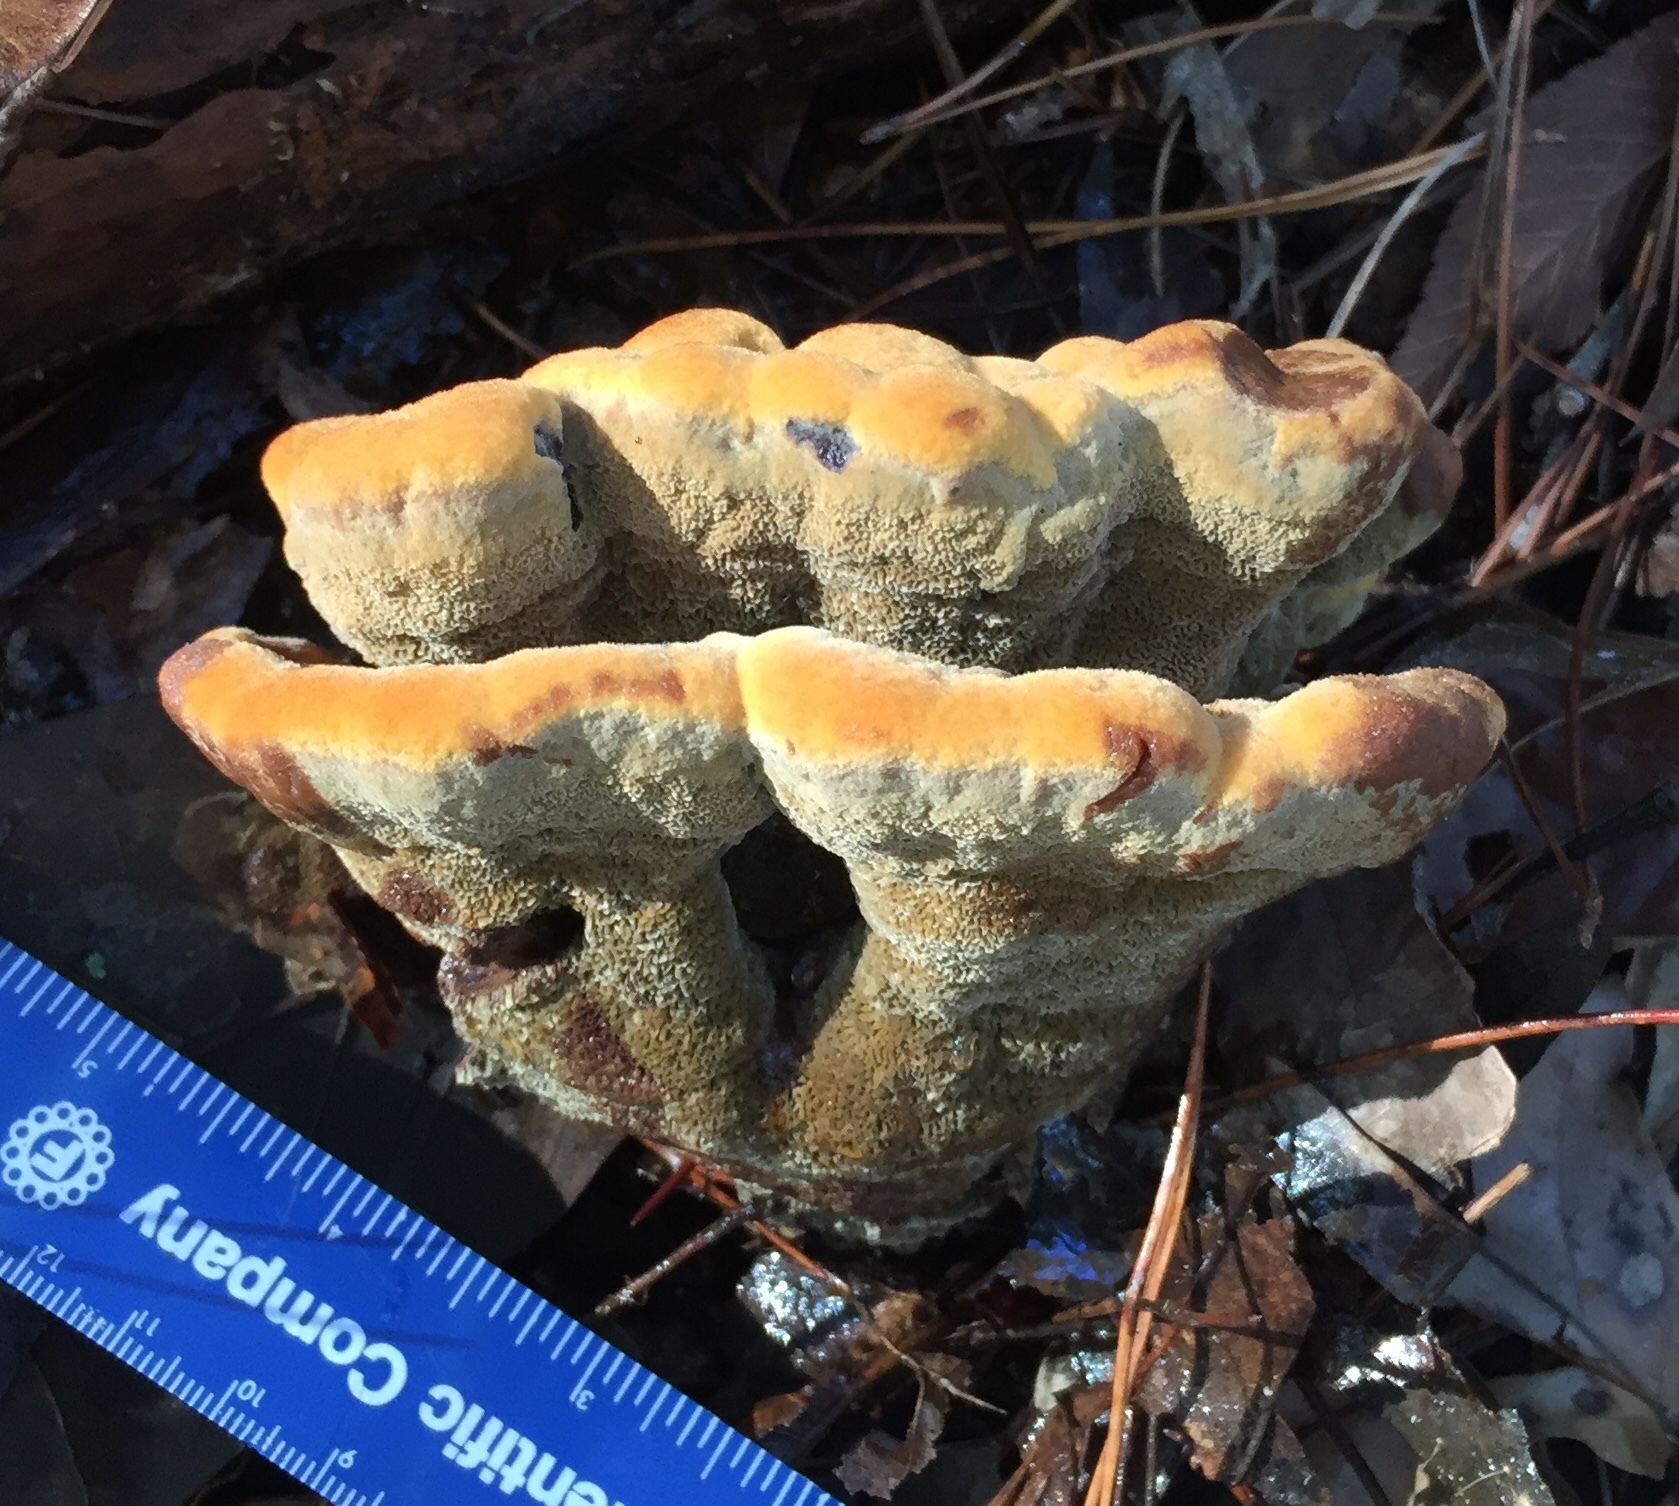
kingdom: Fungi
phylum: Basidiomycota
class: Agaricomycetes
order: Polyporales
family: Laetiporaceae
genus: Phaeolus
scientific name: Phaeolus schweinitzii
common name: Dyer's mazegill
